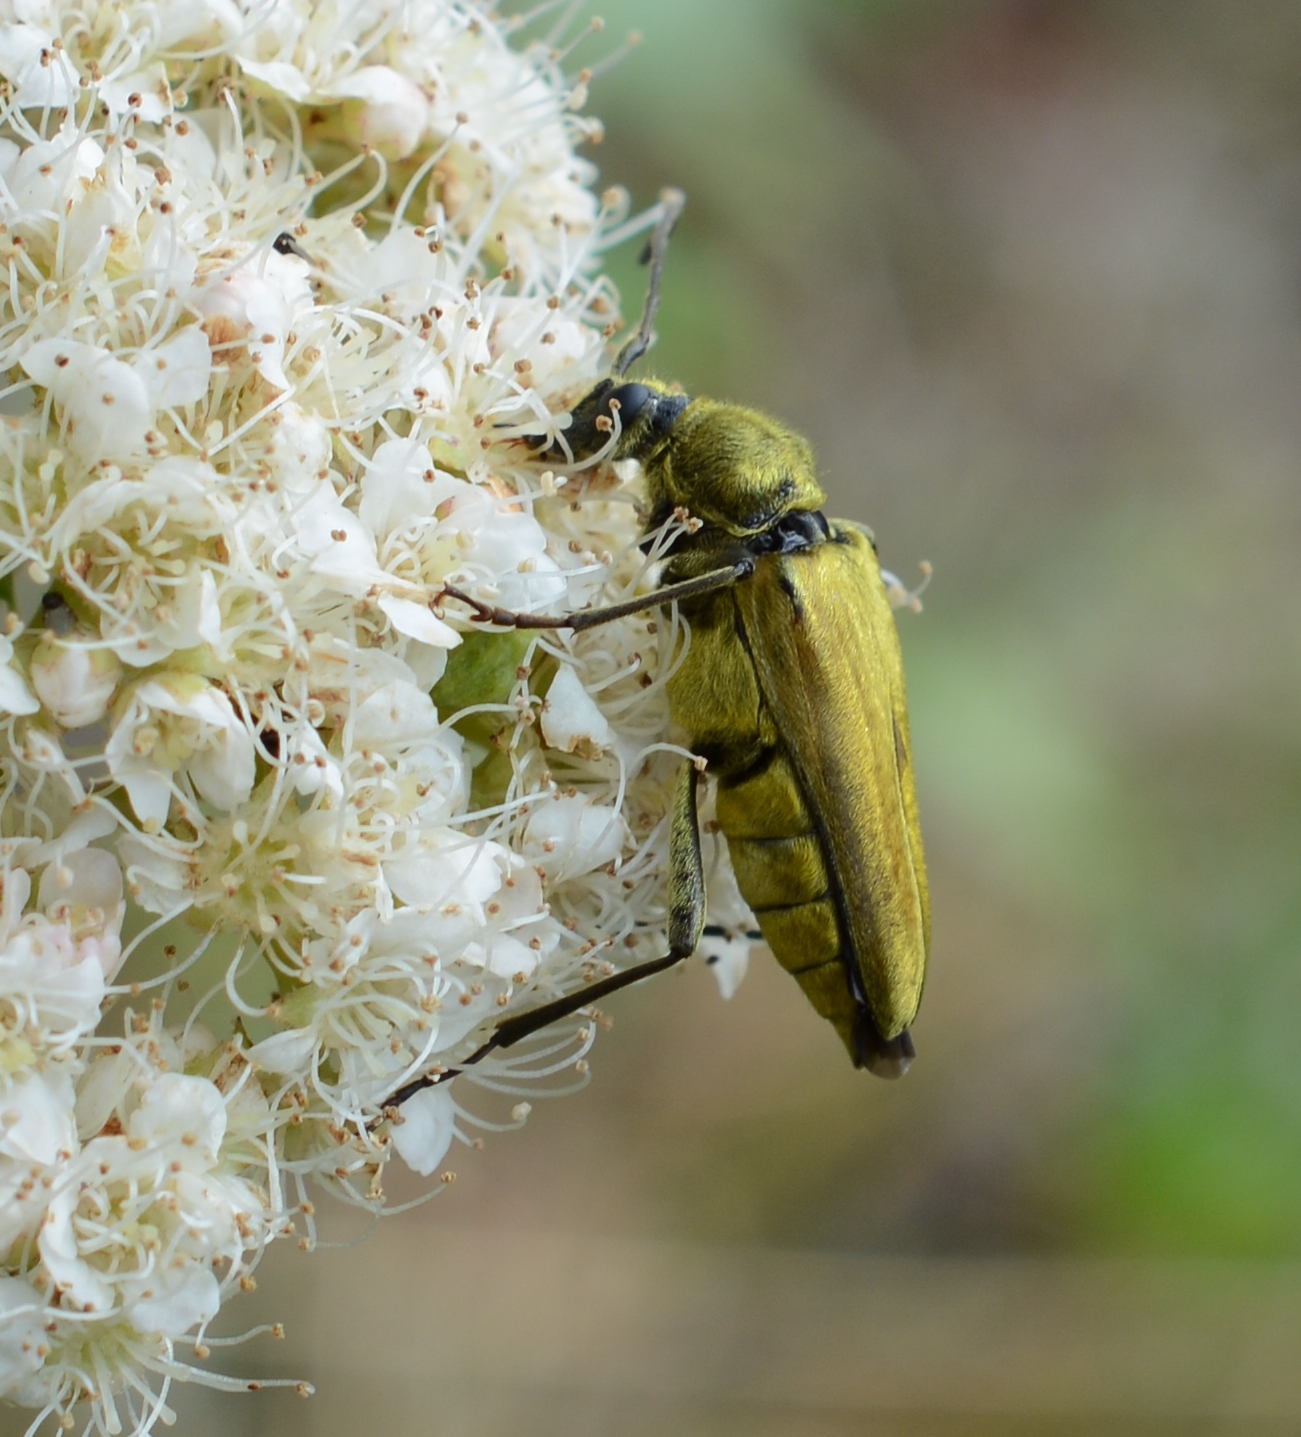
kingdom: Animalia
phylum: Arthropoda
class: Insecta
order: Coleoptera
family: Cerambycidae
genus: Cosmosalia
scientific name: Cosmosalia chrysocoma
